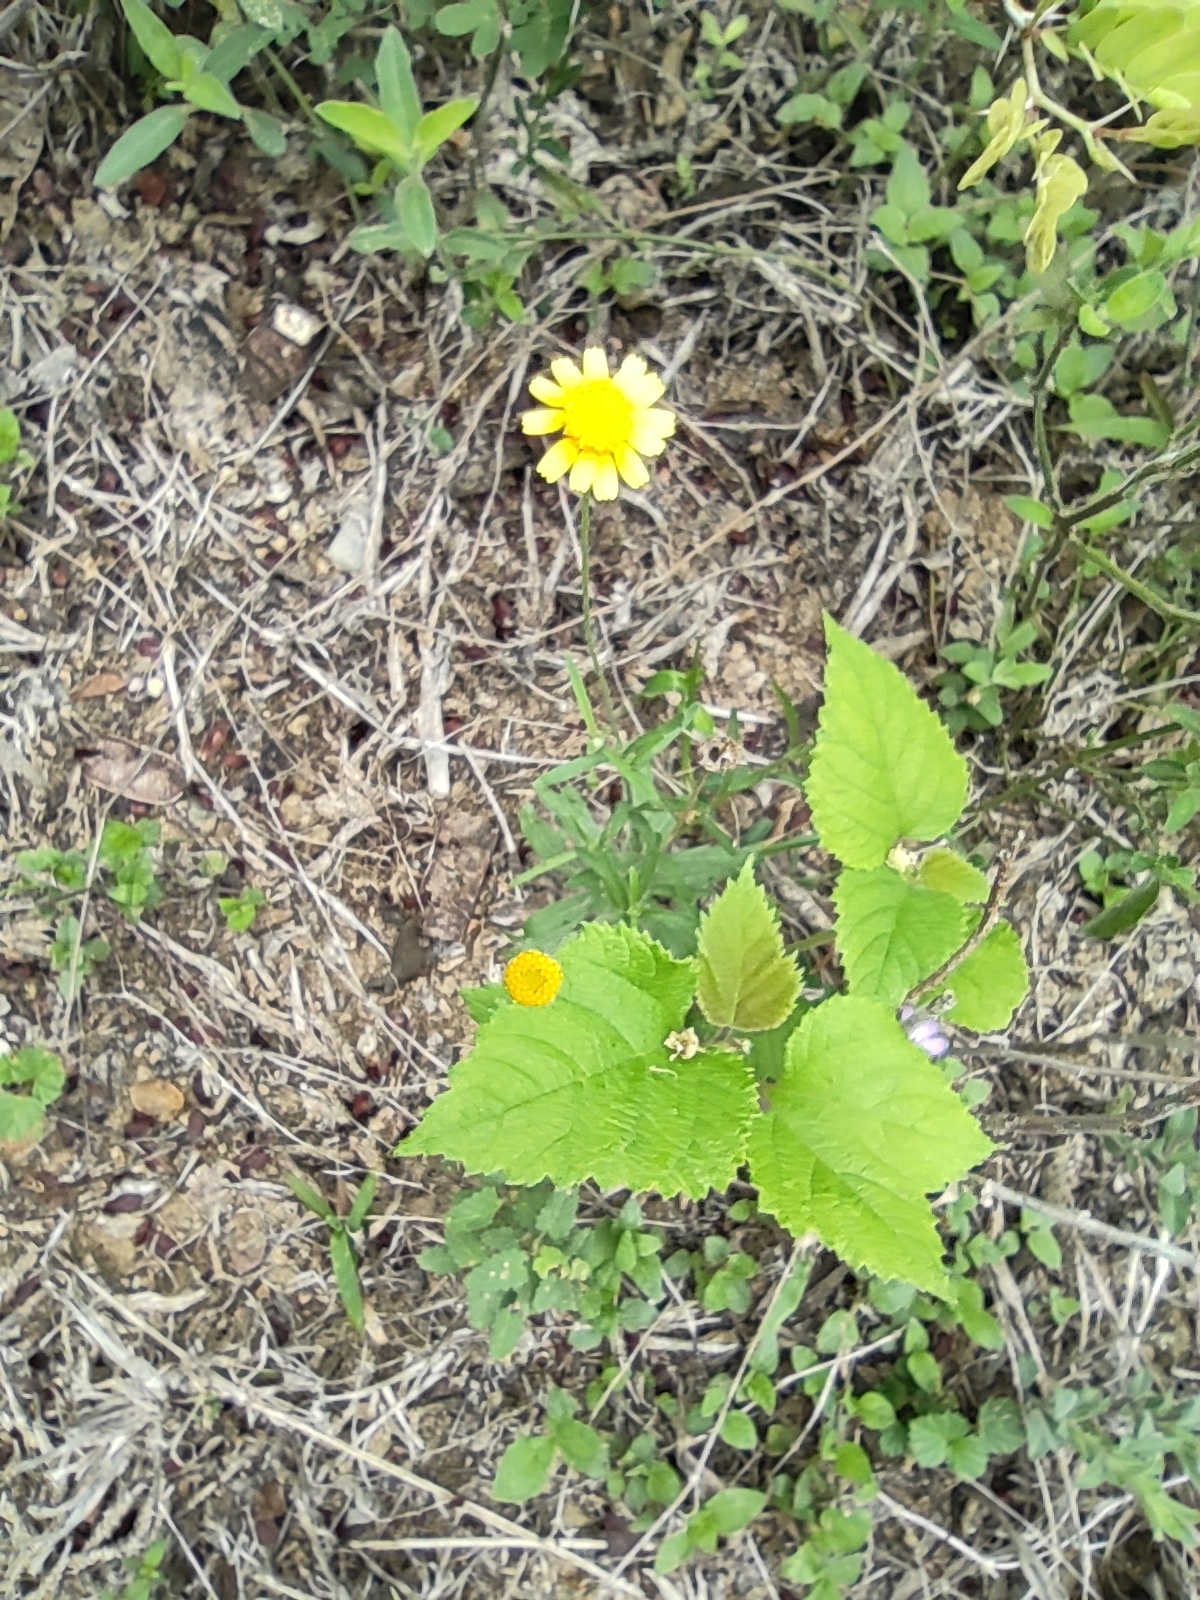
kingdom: Plantae
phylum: Tracheophyta
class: Magnoliopsida
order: Asterales
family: Asteraceae
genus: Tetraneuris
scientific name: Tetraneuris linearifolia
